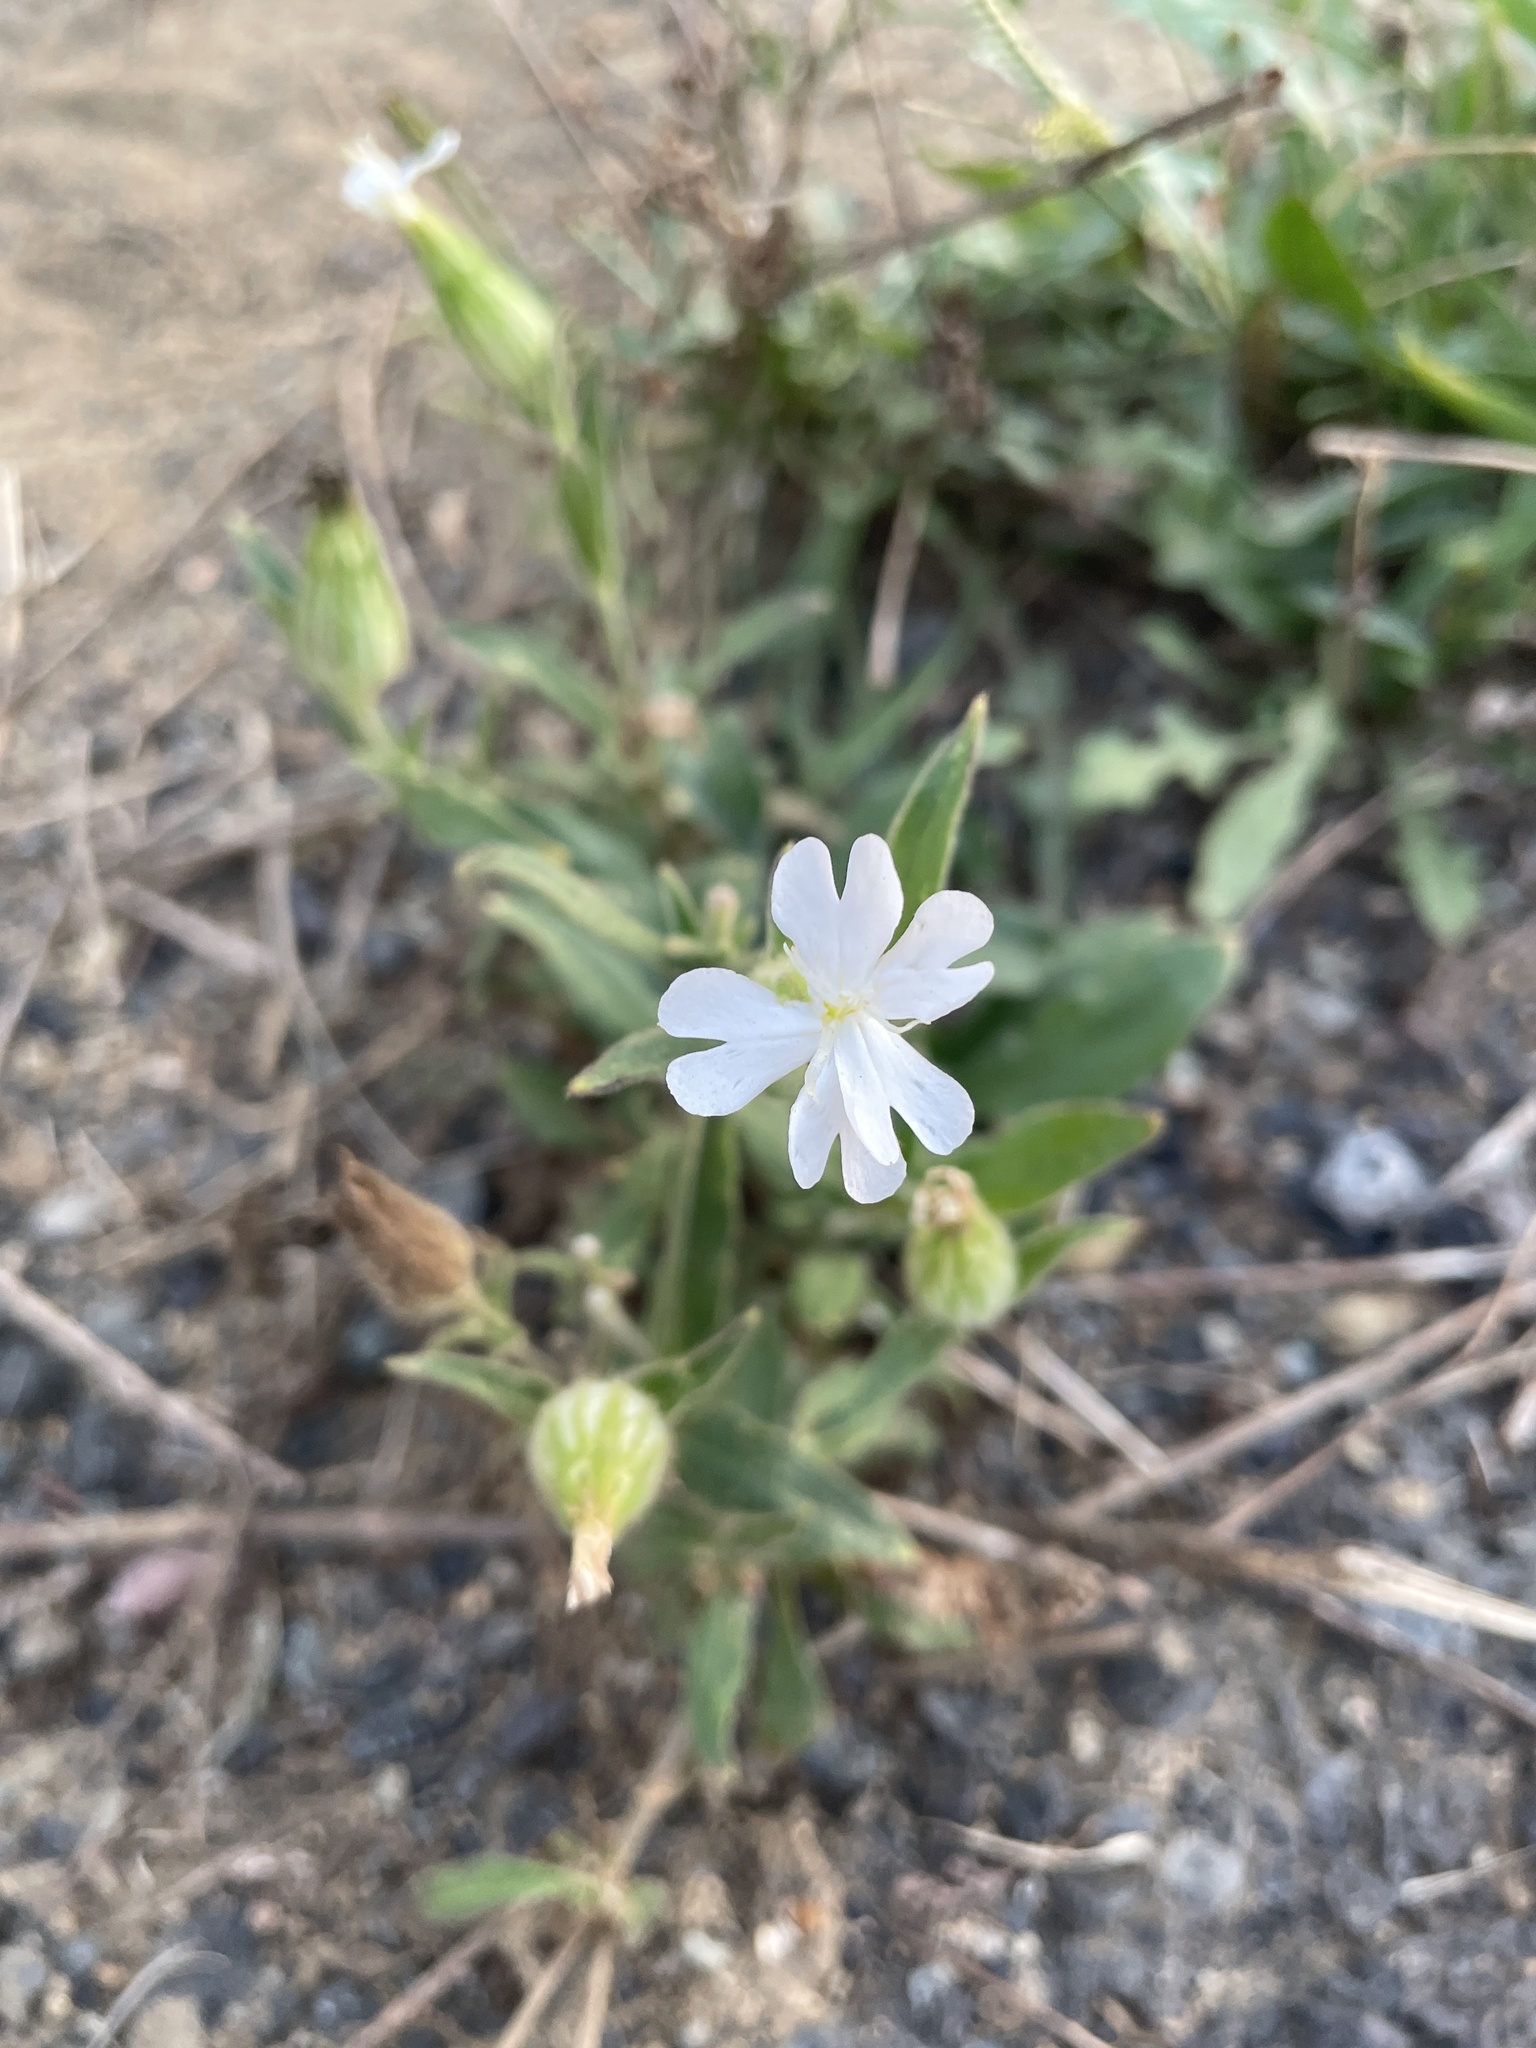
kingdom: Plantae
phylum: Tracheophyta
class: Magnoliopsida
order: Caryophyllales
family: Caryophyllaceae
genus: Silene
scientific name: Silene latifolia
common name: White campion
